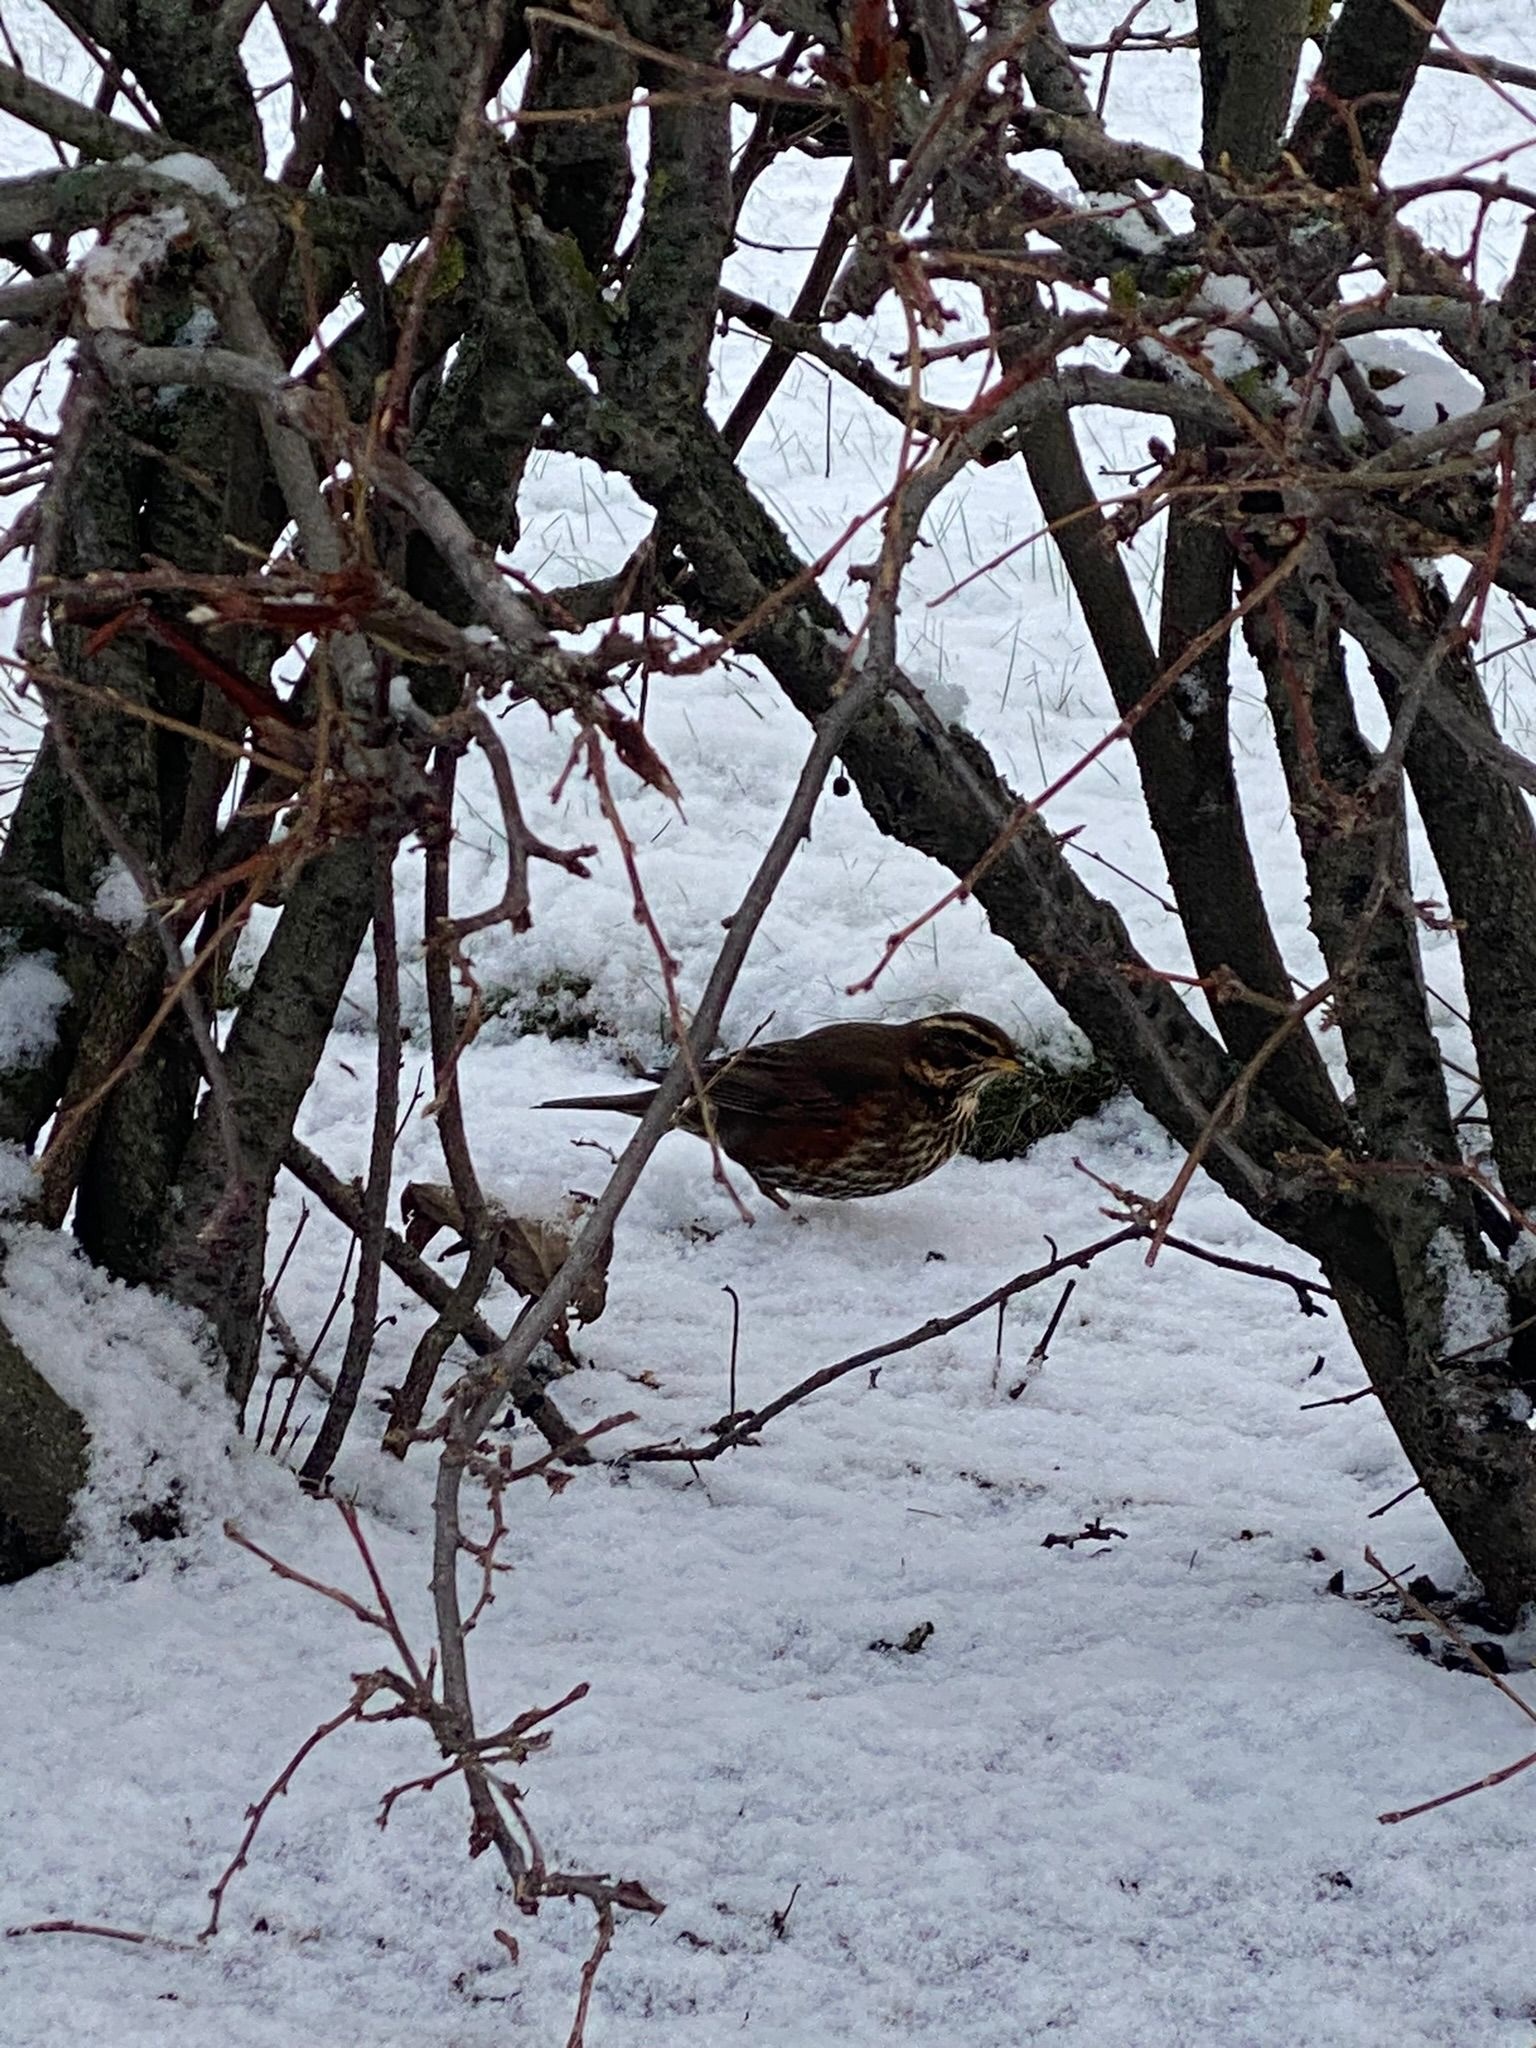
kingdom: Animalia
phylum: Chordata
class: Aves
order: Passeriformes
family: Turdidae
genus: Turdus
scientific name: Turdus iliacus
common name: Redwing
